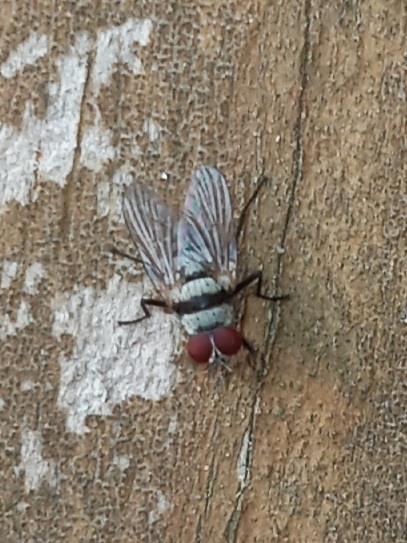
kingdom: Animalia
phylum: Arthropoda
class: Insecta
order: Diptera
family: Anthomyiidae
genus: Anthomyia
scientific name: Anthomyia illocata
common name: Fly
